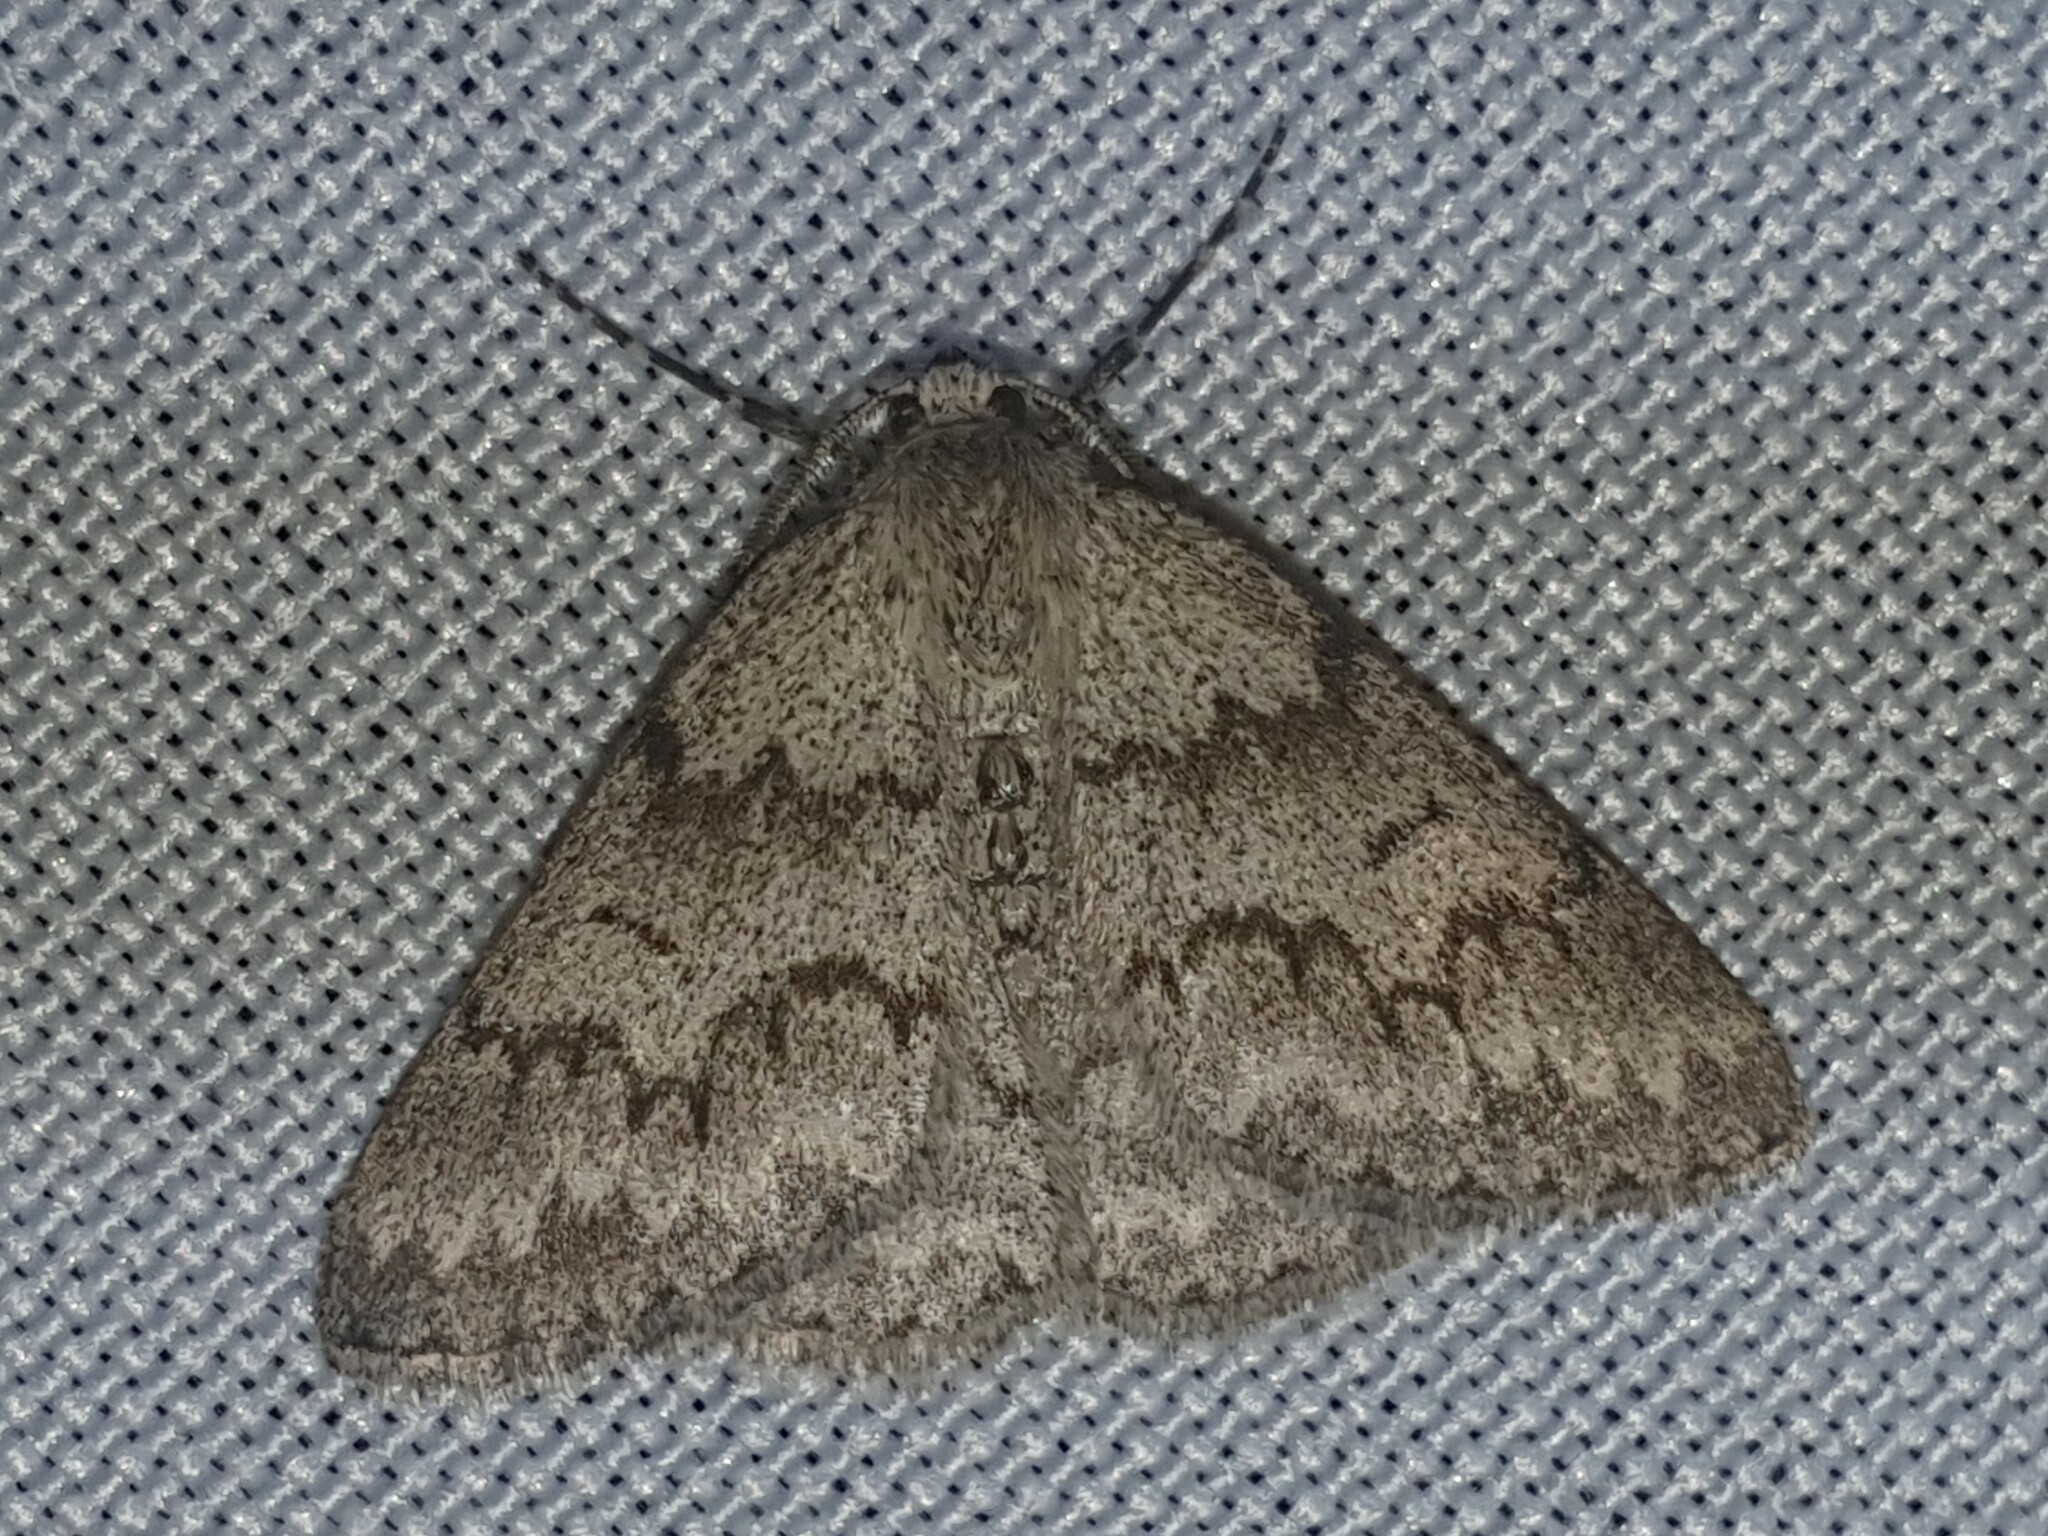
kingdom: Animalia
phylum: Arthropoda
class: Insecta
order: Lepidoptera
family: Geometridae
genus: Pseudoterpna
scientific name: Pseudoterpna coronillaria
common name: Jersey emerald
